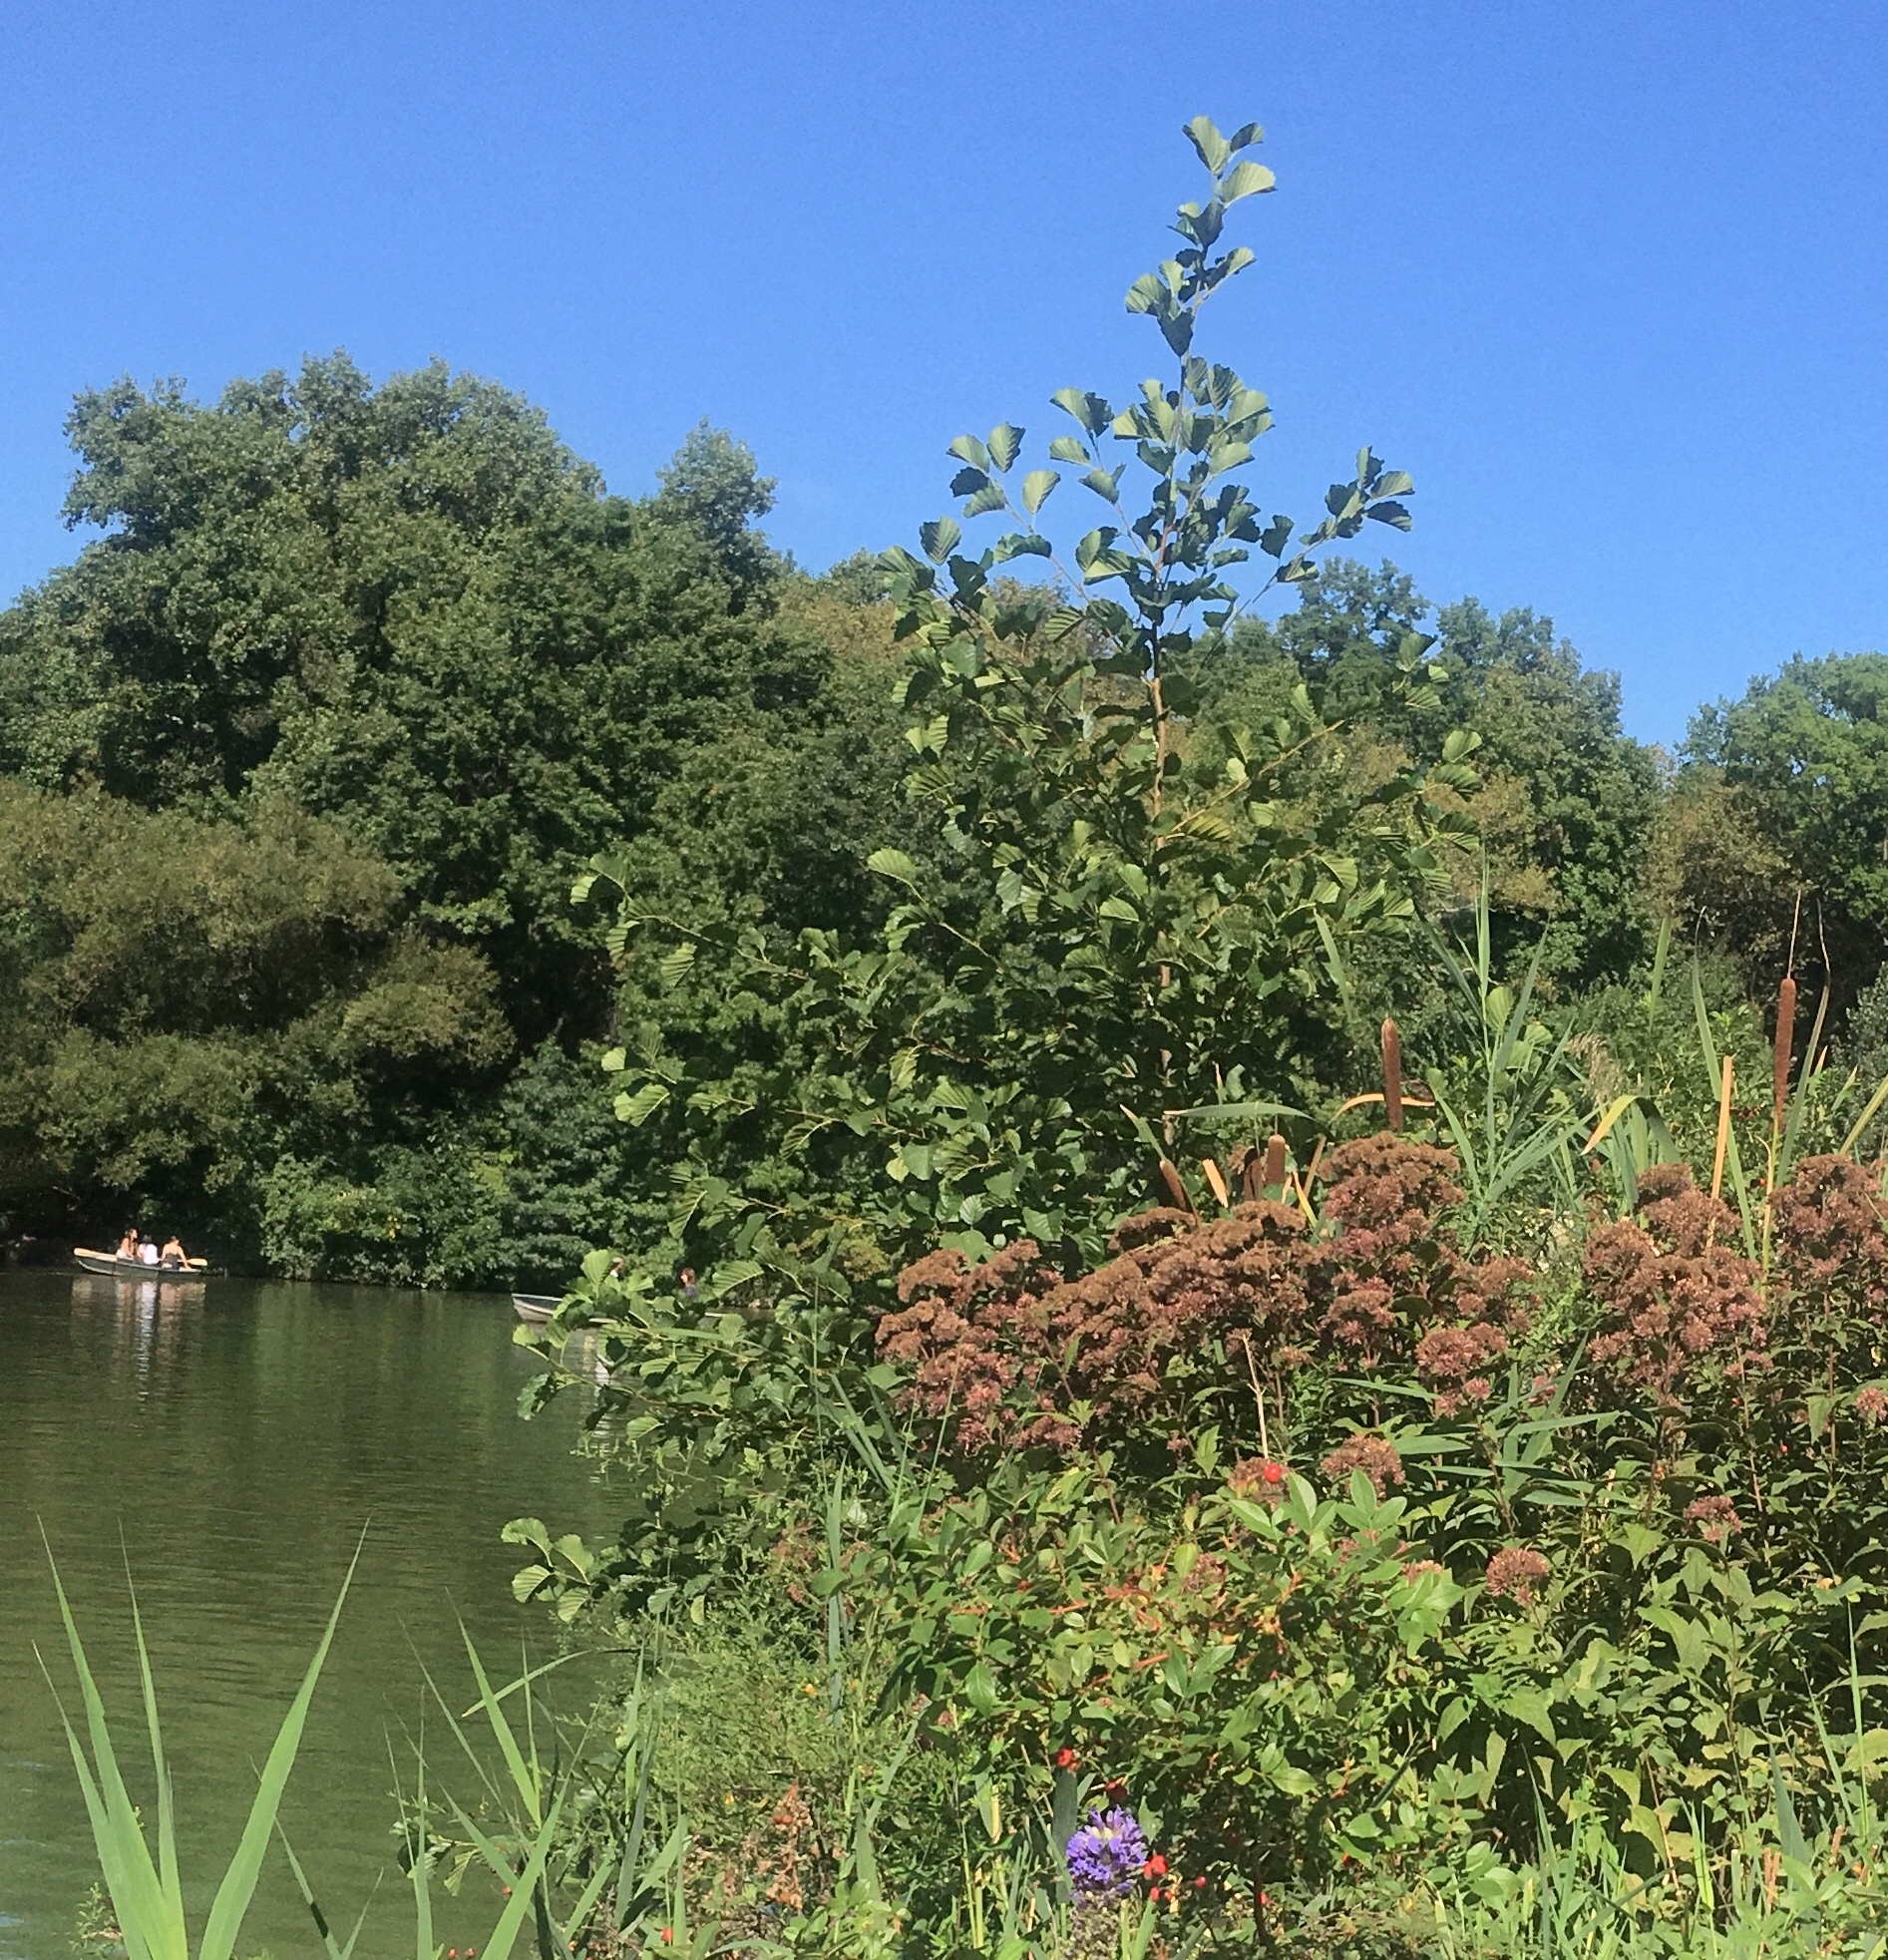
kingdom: Plantae
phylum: Tracheophyta
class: Magnoliopsida
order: Fagales
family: Betulaceae
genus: Alnus
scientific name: Alnus glutinosa
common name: Black alder
